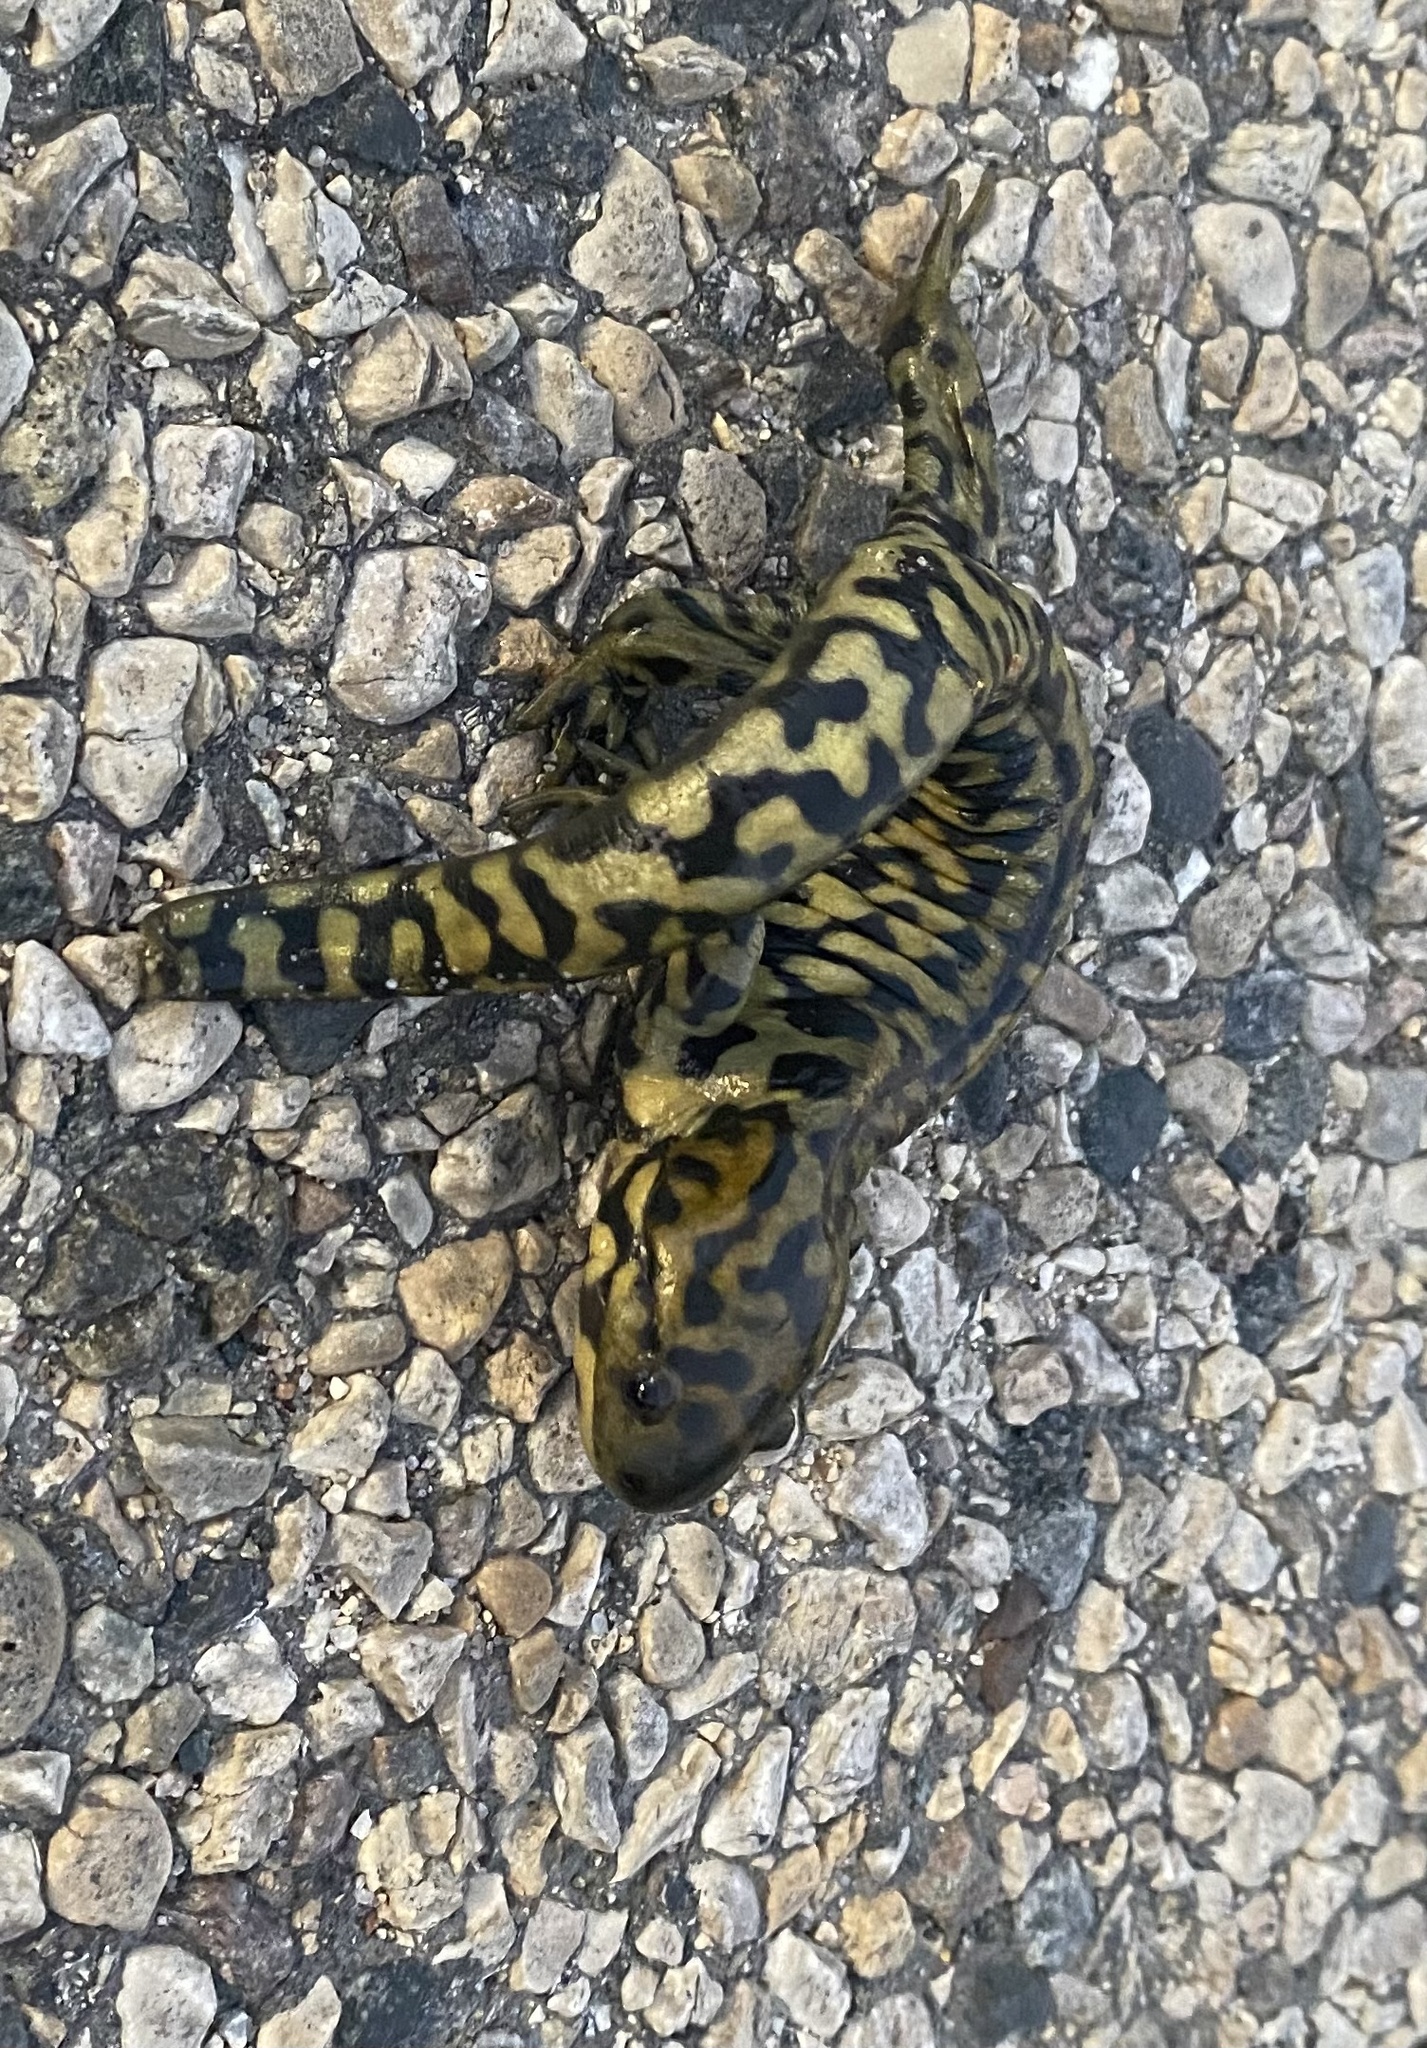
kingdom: Animalia
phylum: Chordata
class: Amphibia
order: Caudata
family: Ambystomatidae
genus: Ambystoma
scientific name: Ambystoma mavortium
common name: Western tiger salamander
